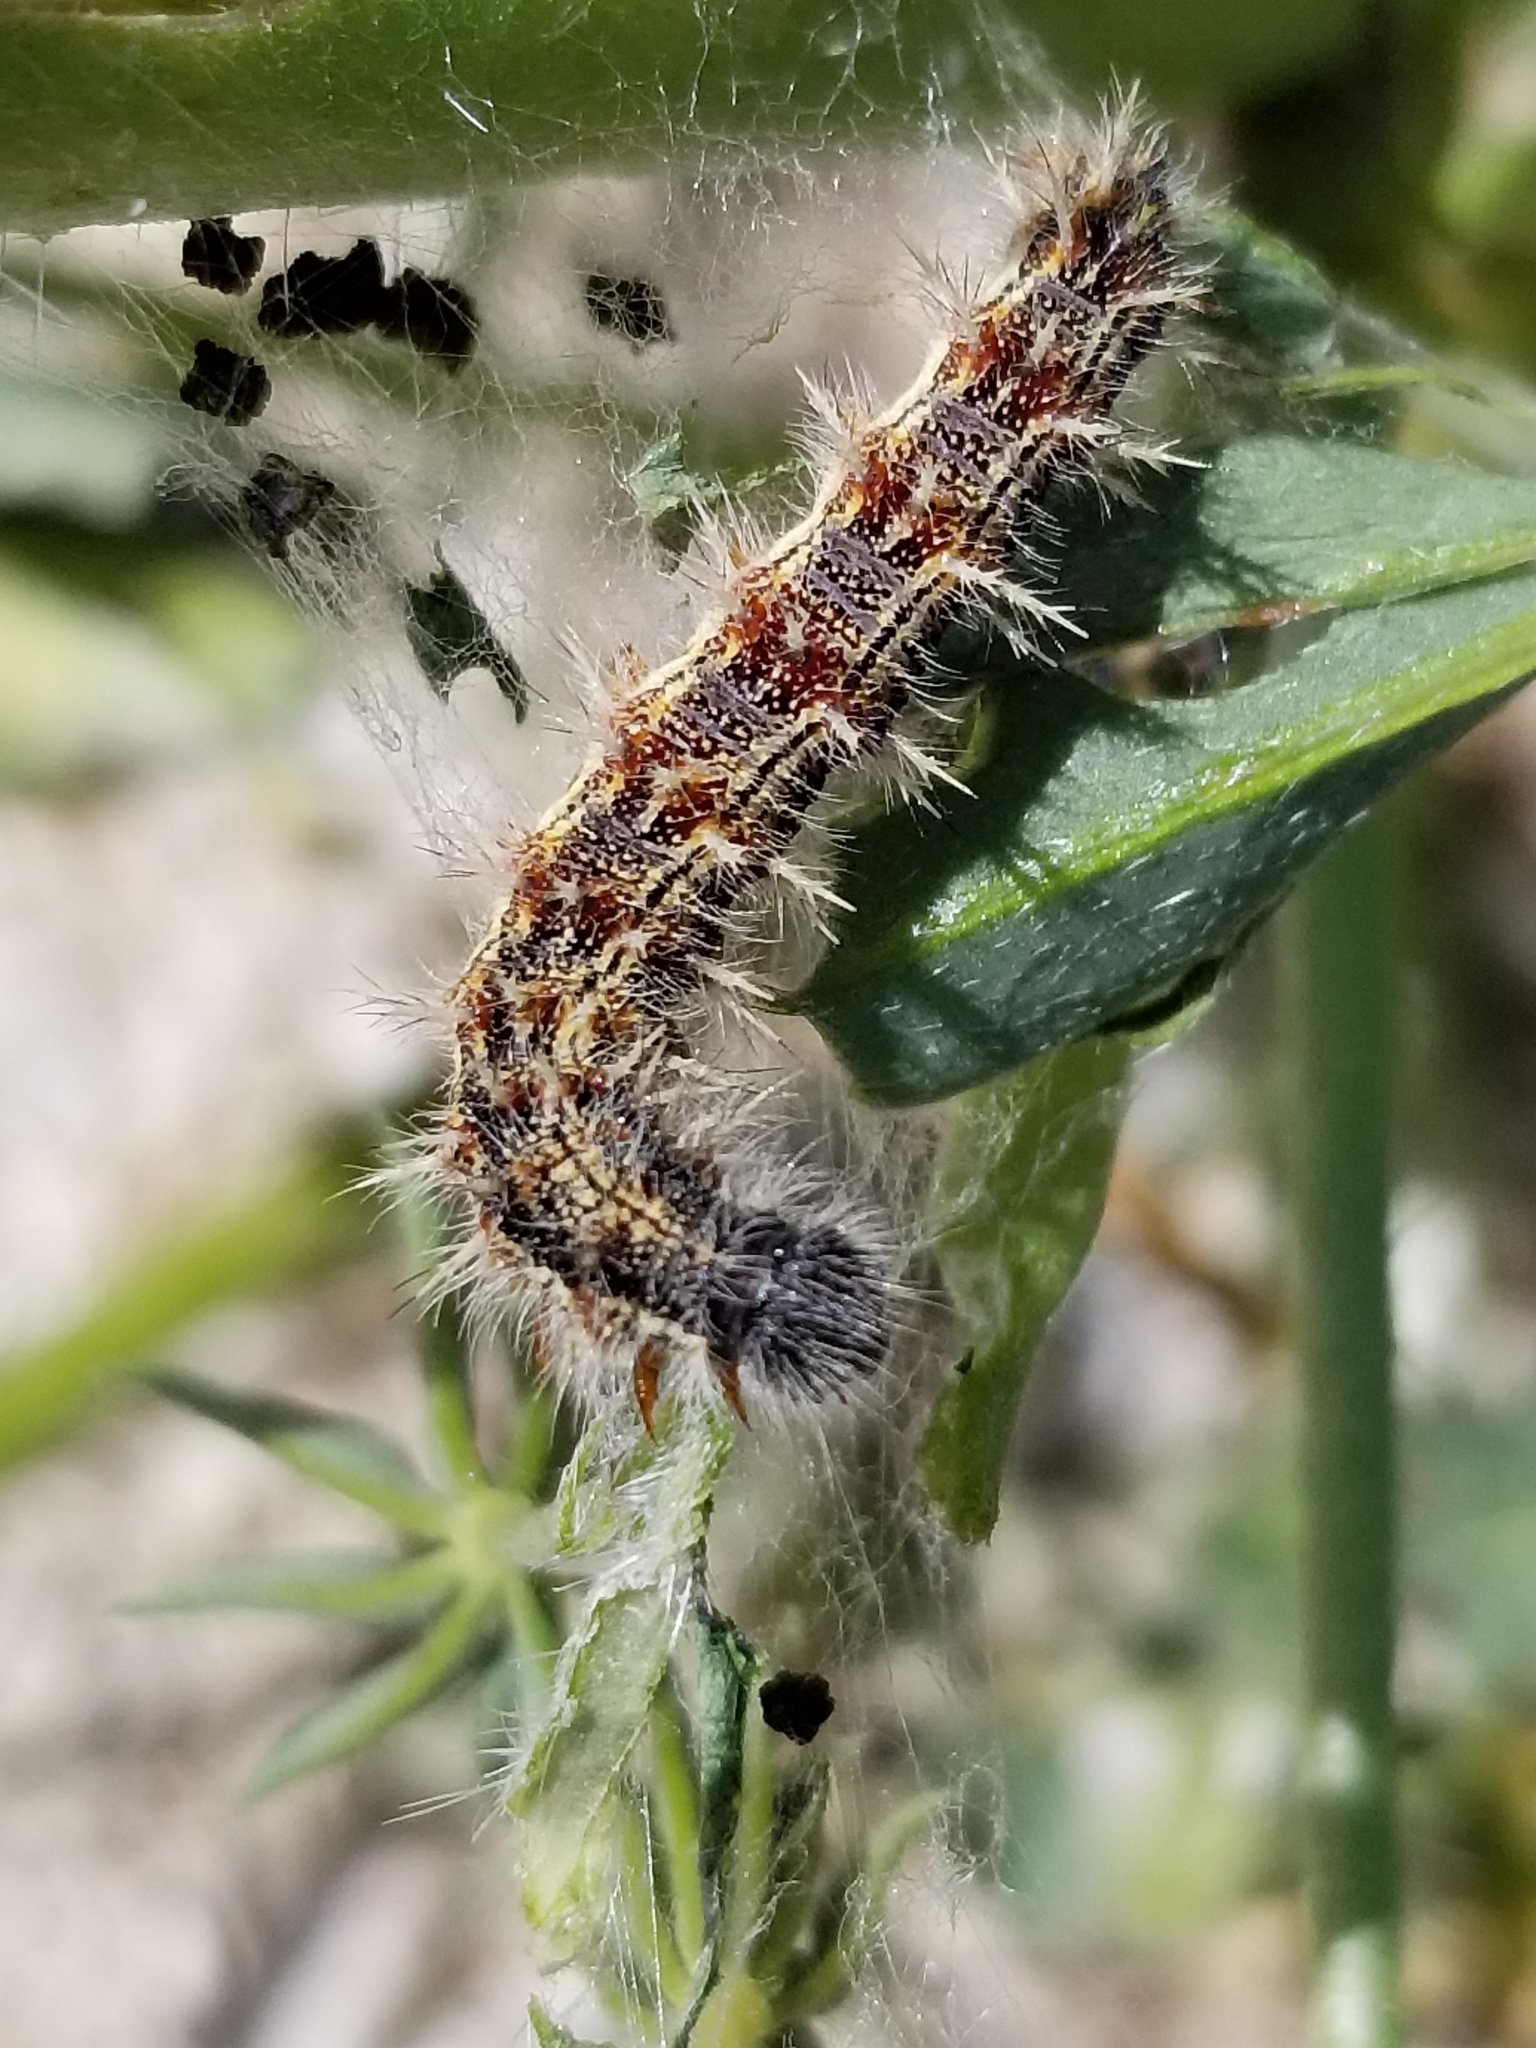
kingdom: Animalia
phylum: Arthropoda
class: Insecta
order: Lepidoptera
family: Nymphalidae
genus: Vanessa
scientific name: Vanessa cardui
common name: Painted lady
